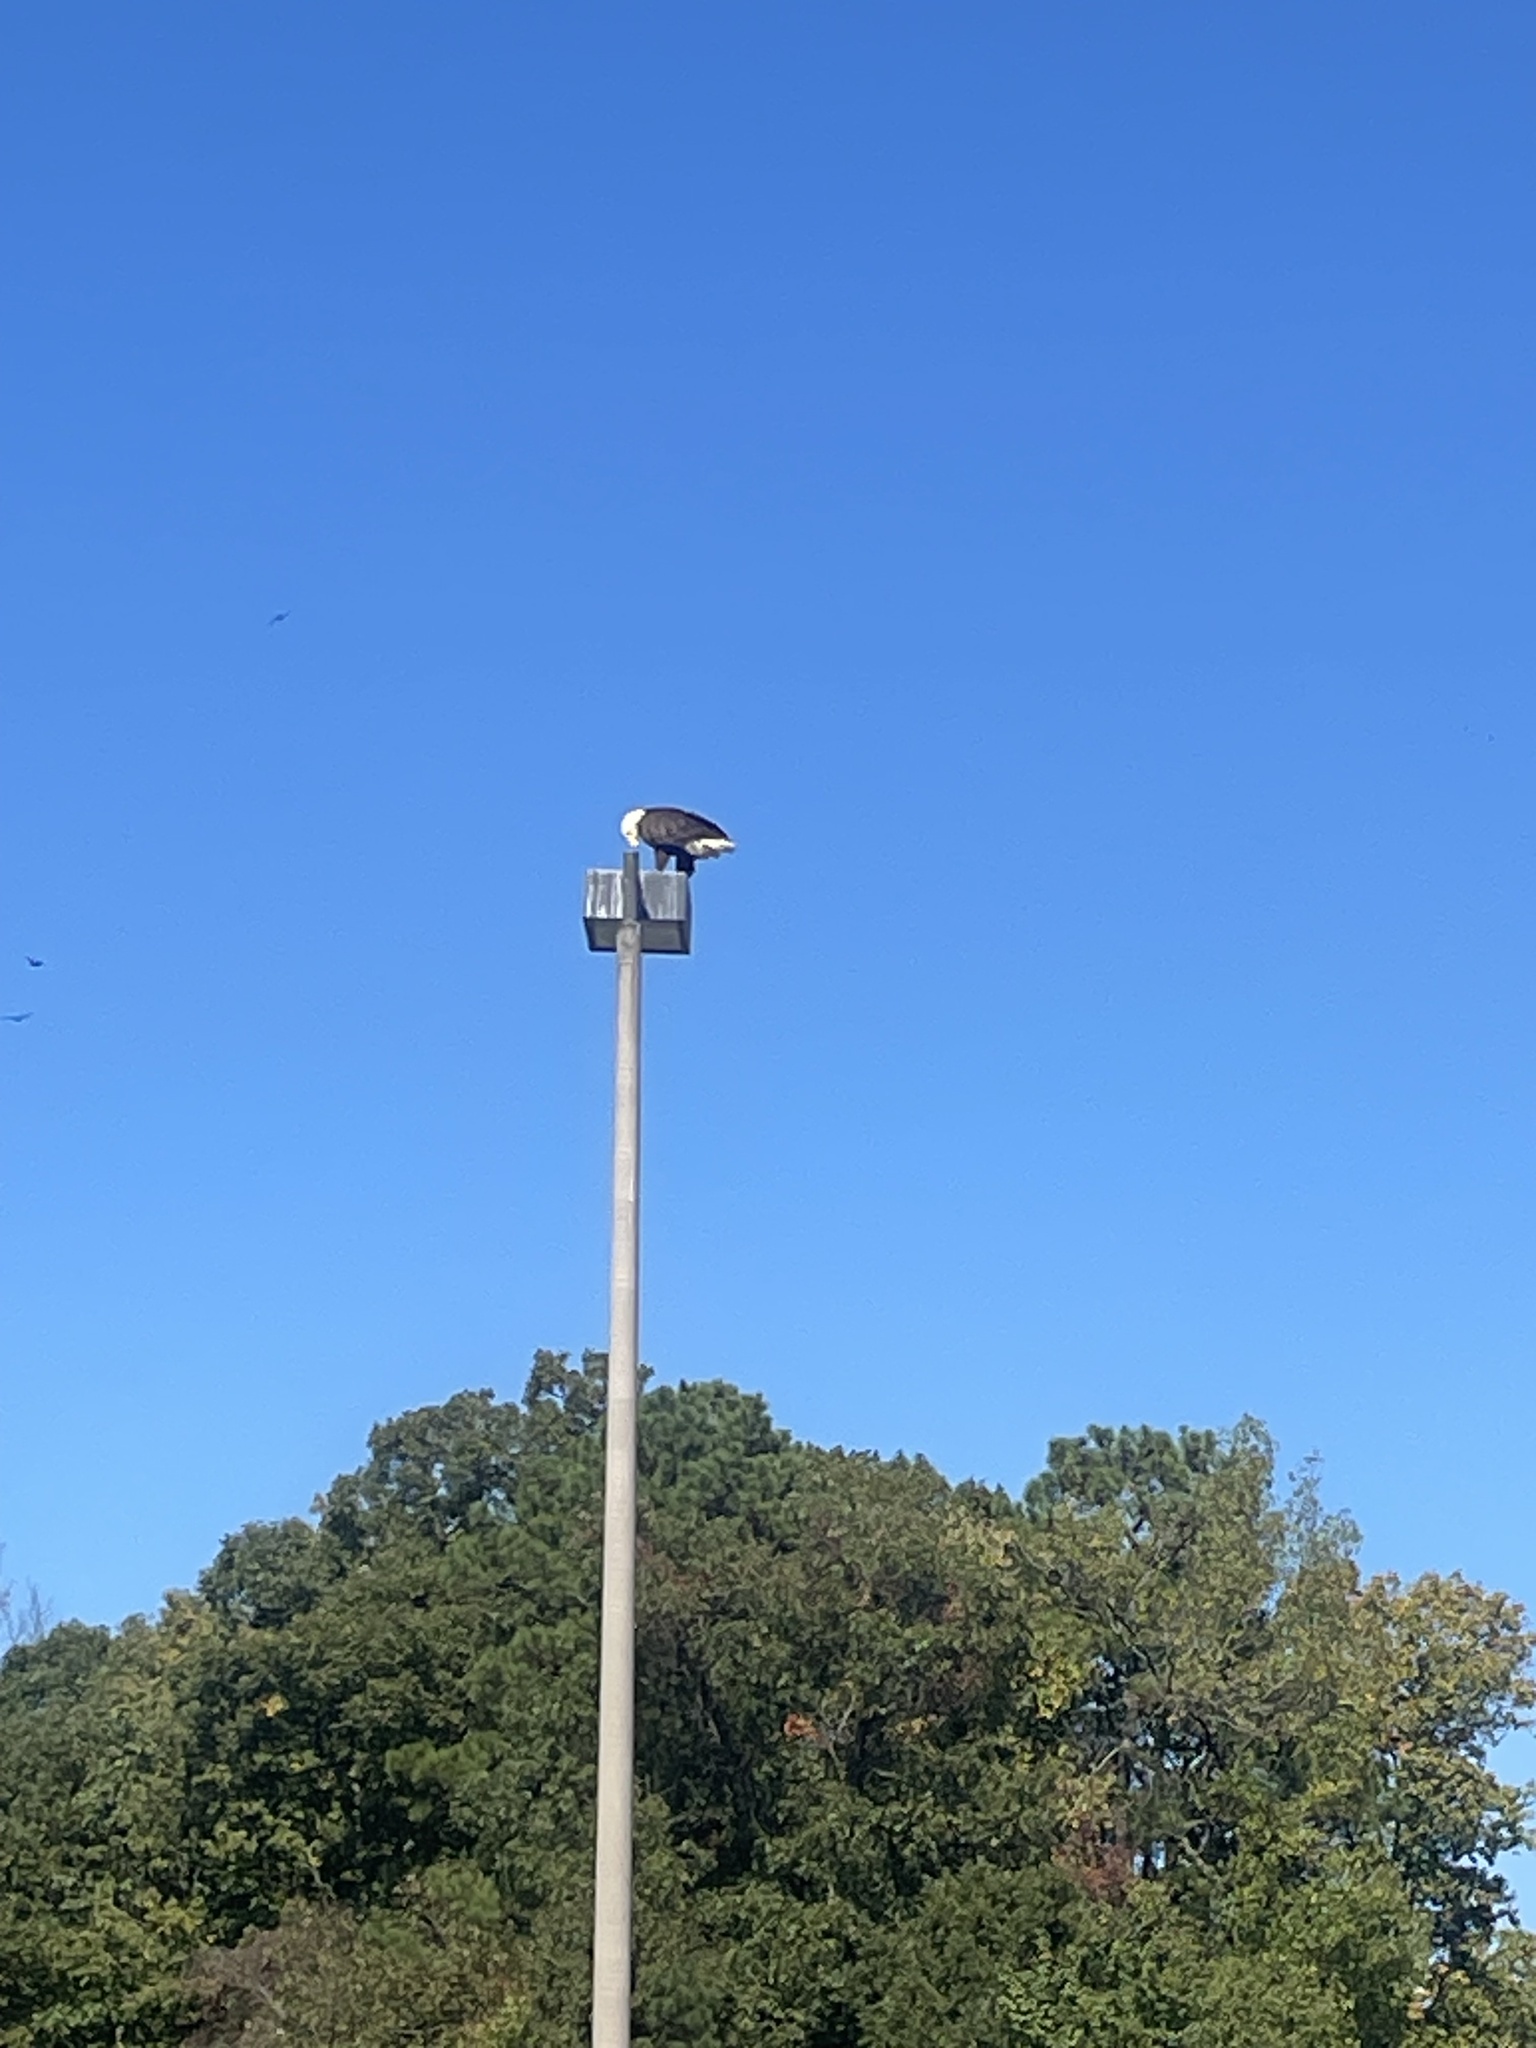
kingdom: Animalia
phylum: Chordata
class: Aves
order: Accipitriformes
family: Accipitridae
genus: Haliaeetus
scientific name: Haliaeetus leucocephalus
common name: Bald eagle
